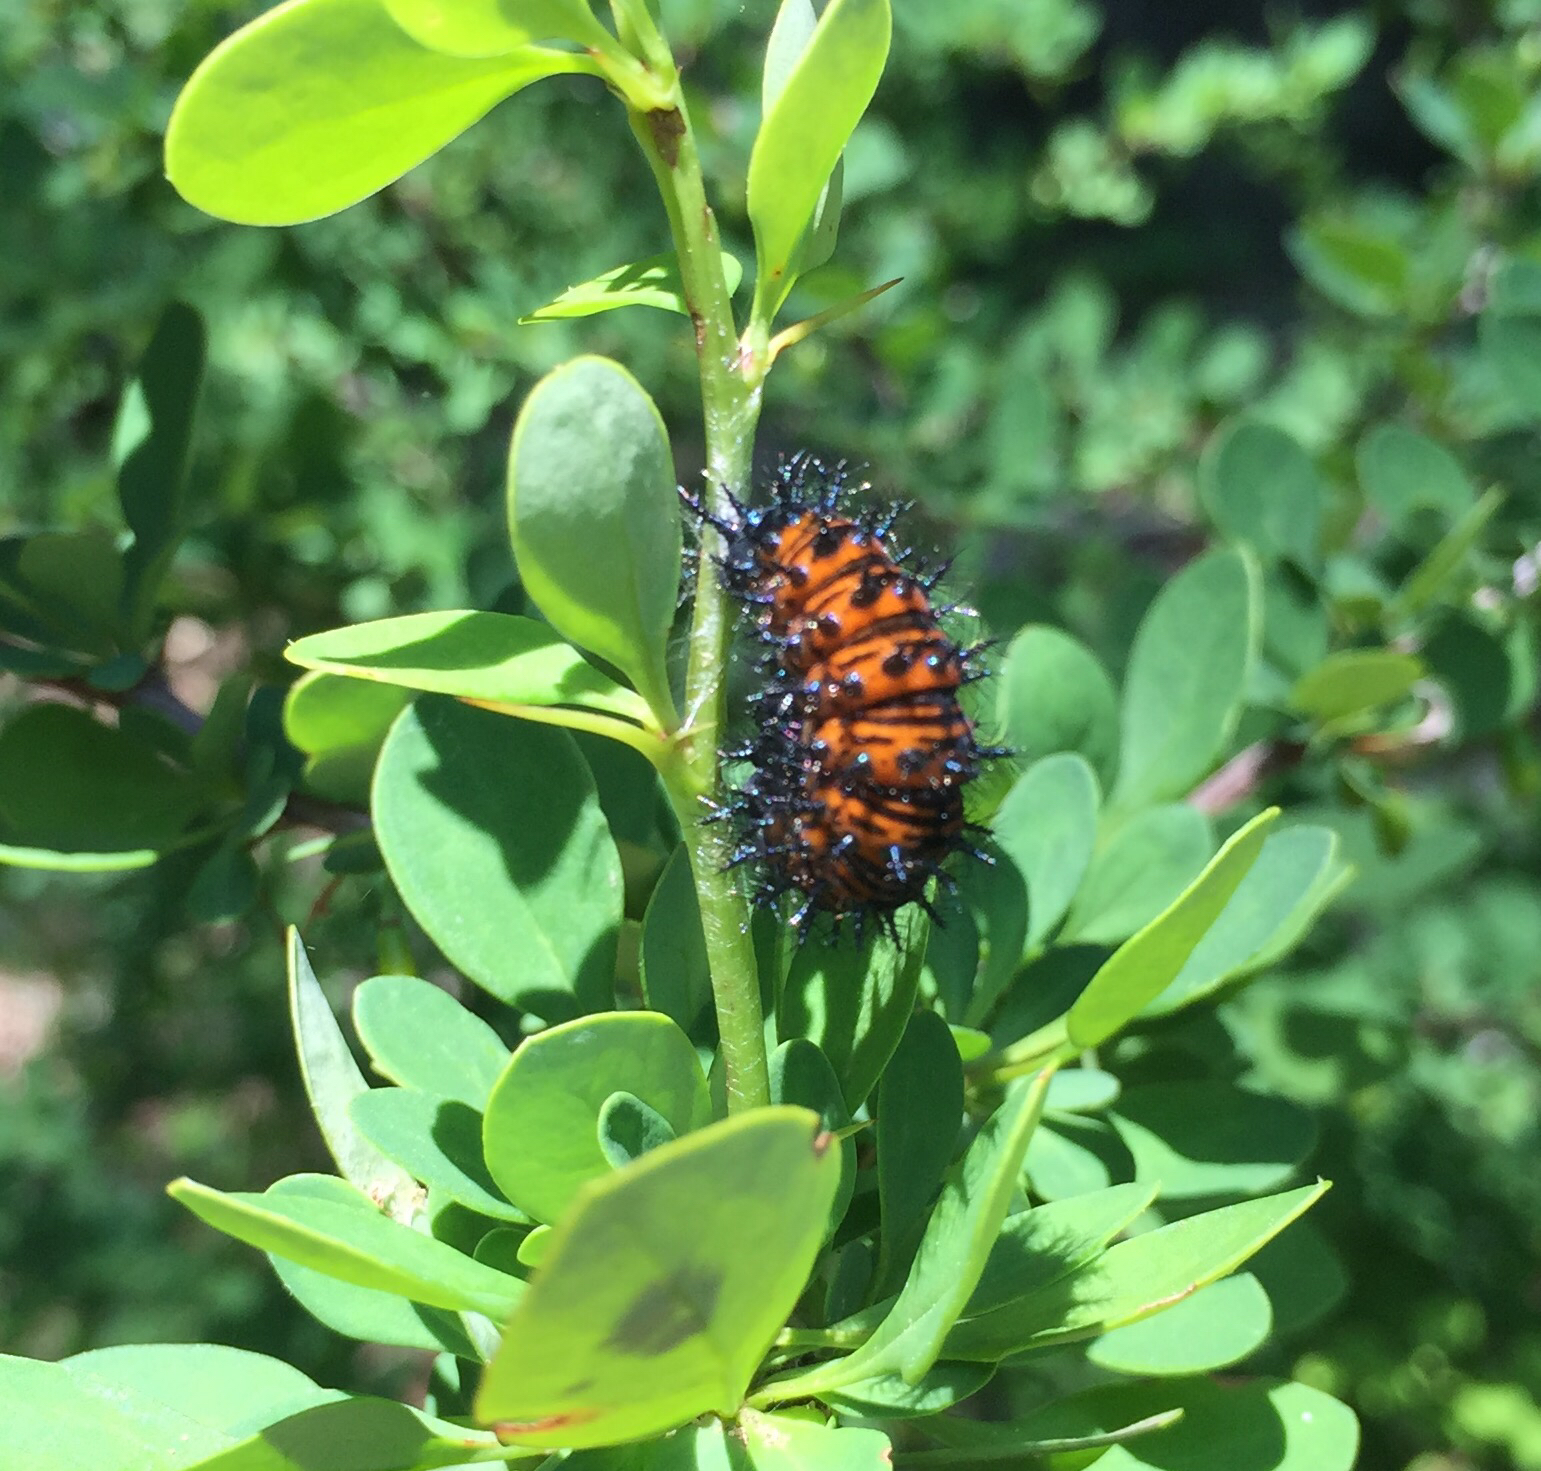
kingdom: Animalia
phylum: Arthropoda
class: Insecta
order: Lepidoptera
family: Nymphalidae
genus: Euphydryas
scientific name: Euphydryas phaeton
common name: Baltimore checkerspot
